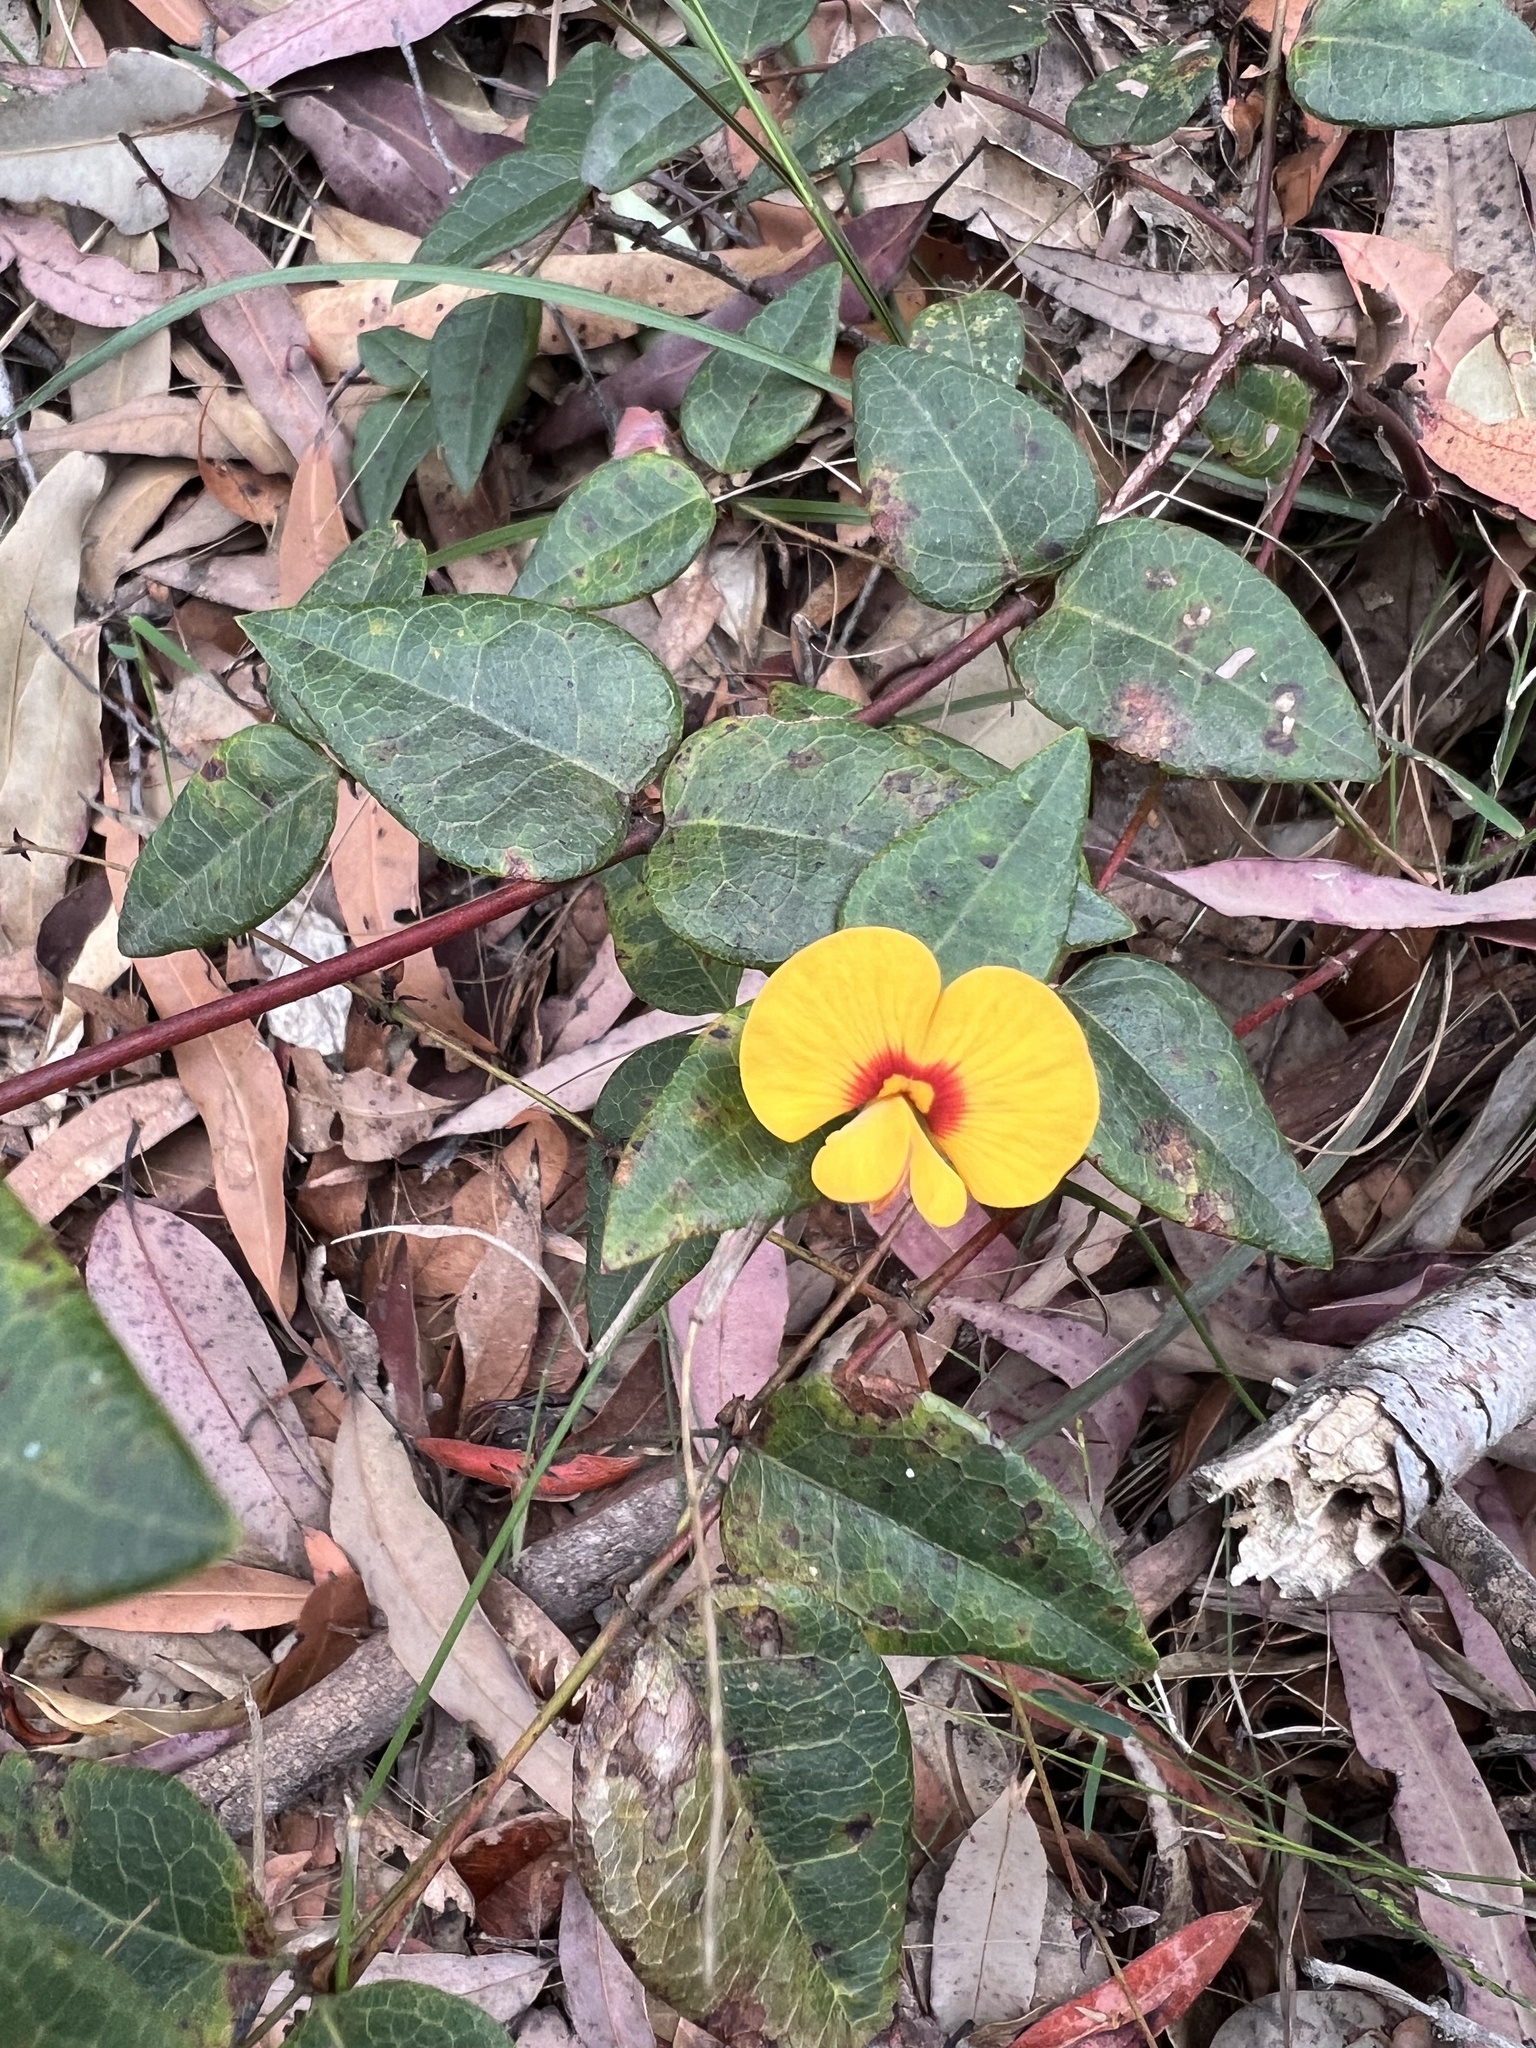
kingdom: Plantae
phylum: Tracheophyta
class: Magnoliopsida
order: Fabales
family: Fabaceae
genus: Platylobium
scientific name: Platylobium formosum
